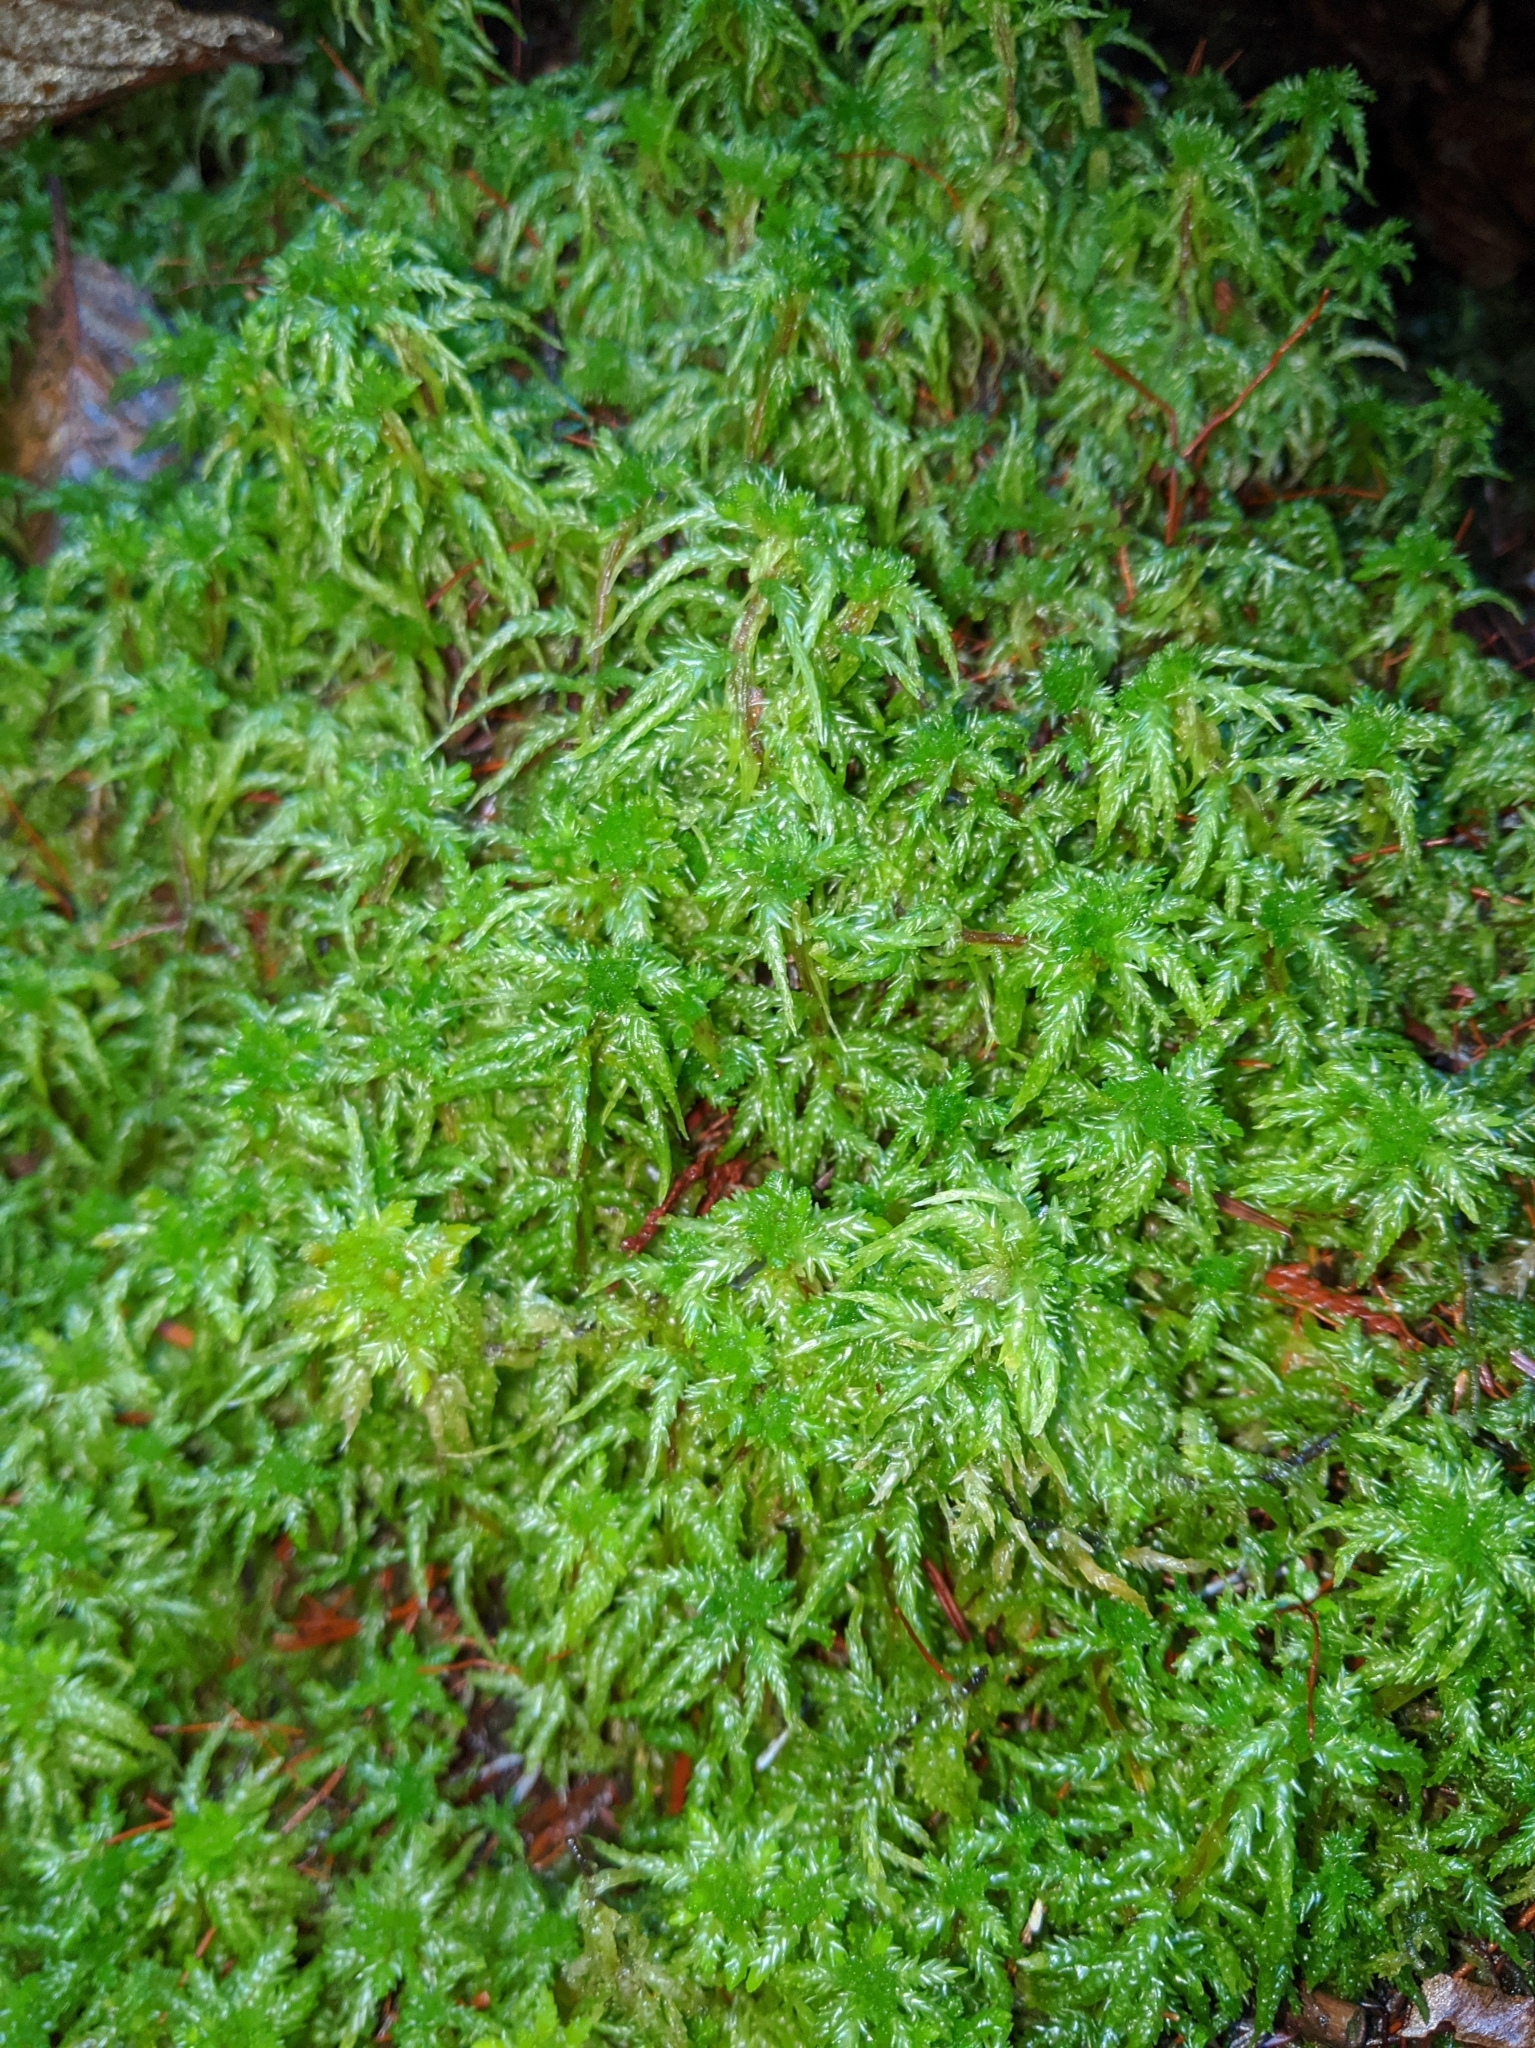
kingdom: Plantae
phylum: Bryophyta
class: Sphagnopsida
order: Sphagnales
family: Sphagnaceae
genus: Sphagnum
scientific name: Sphagnum squarrosum
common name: Shaggy peat moss
